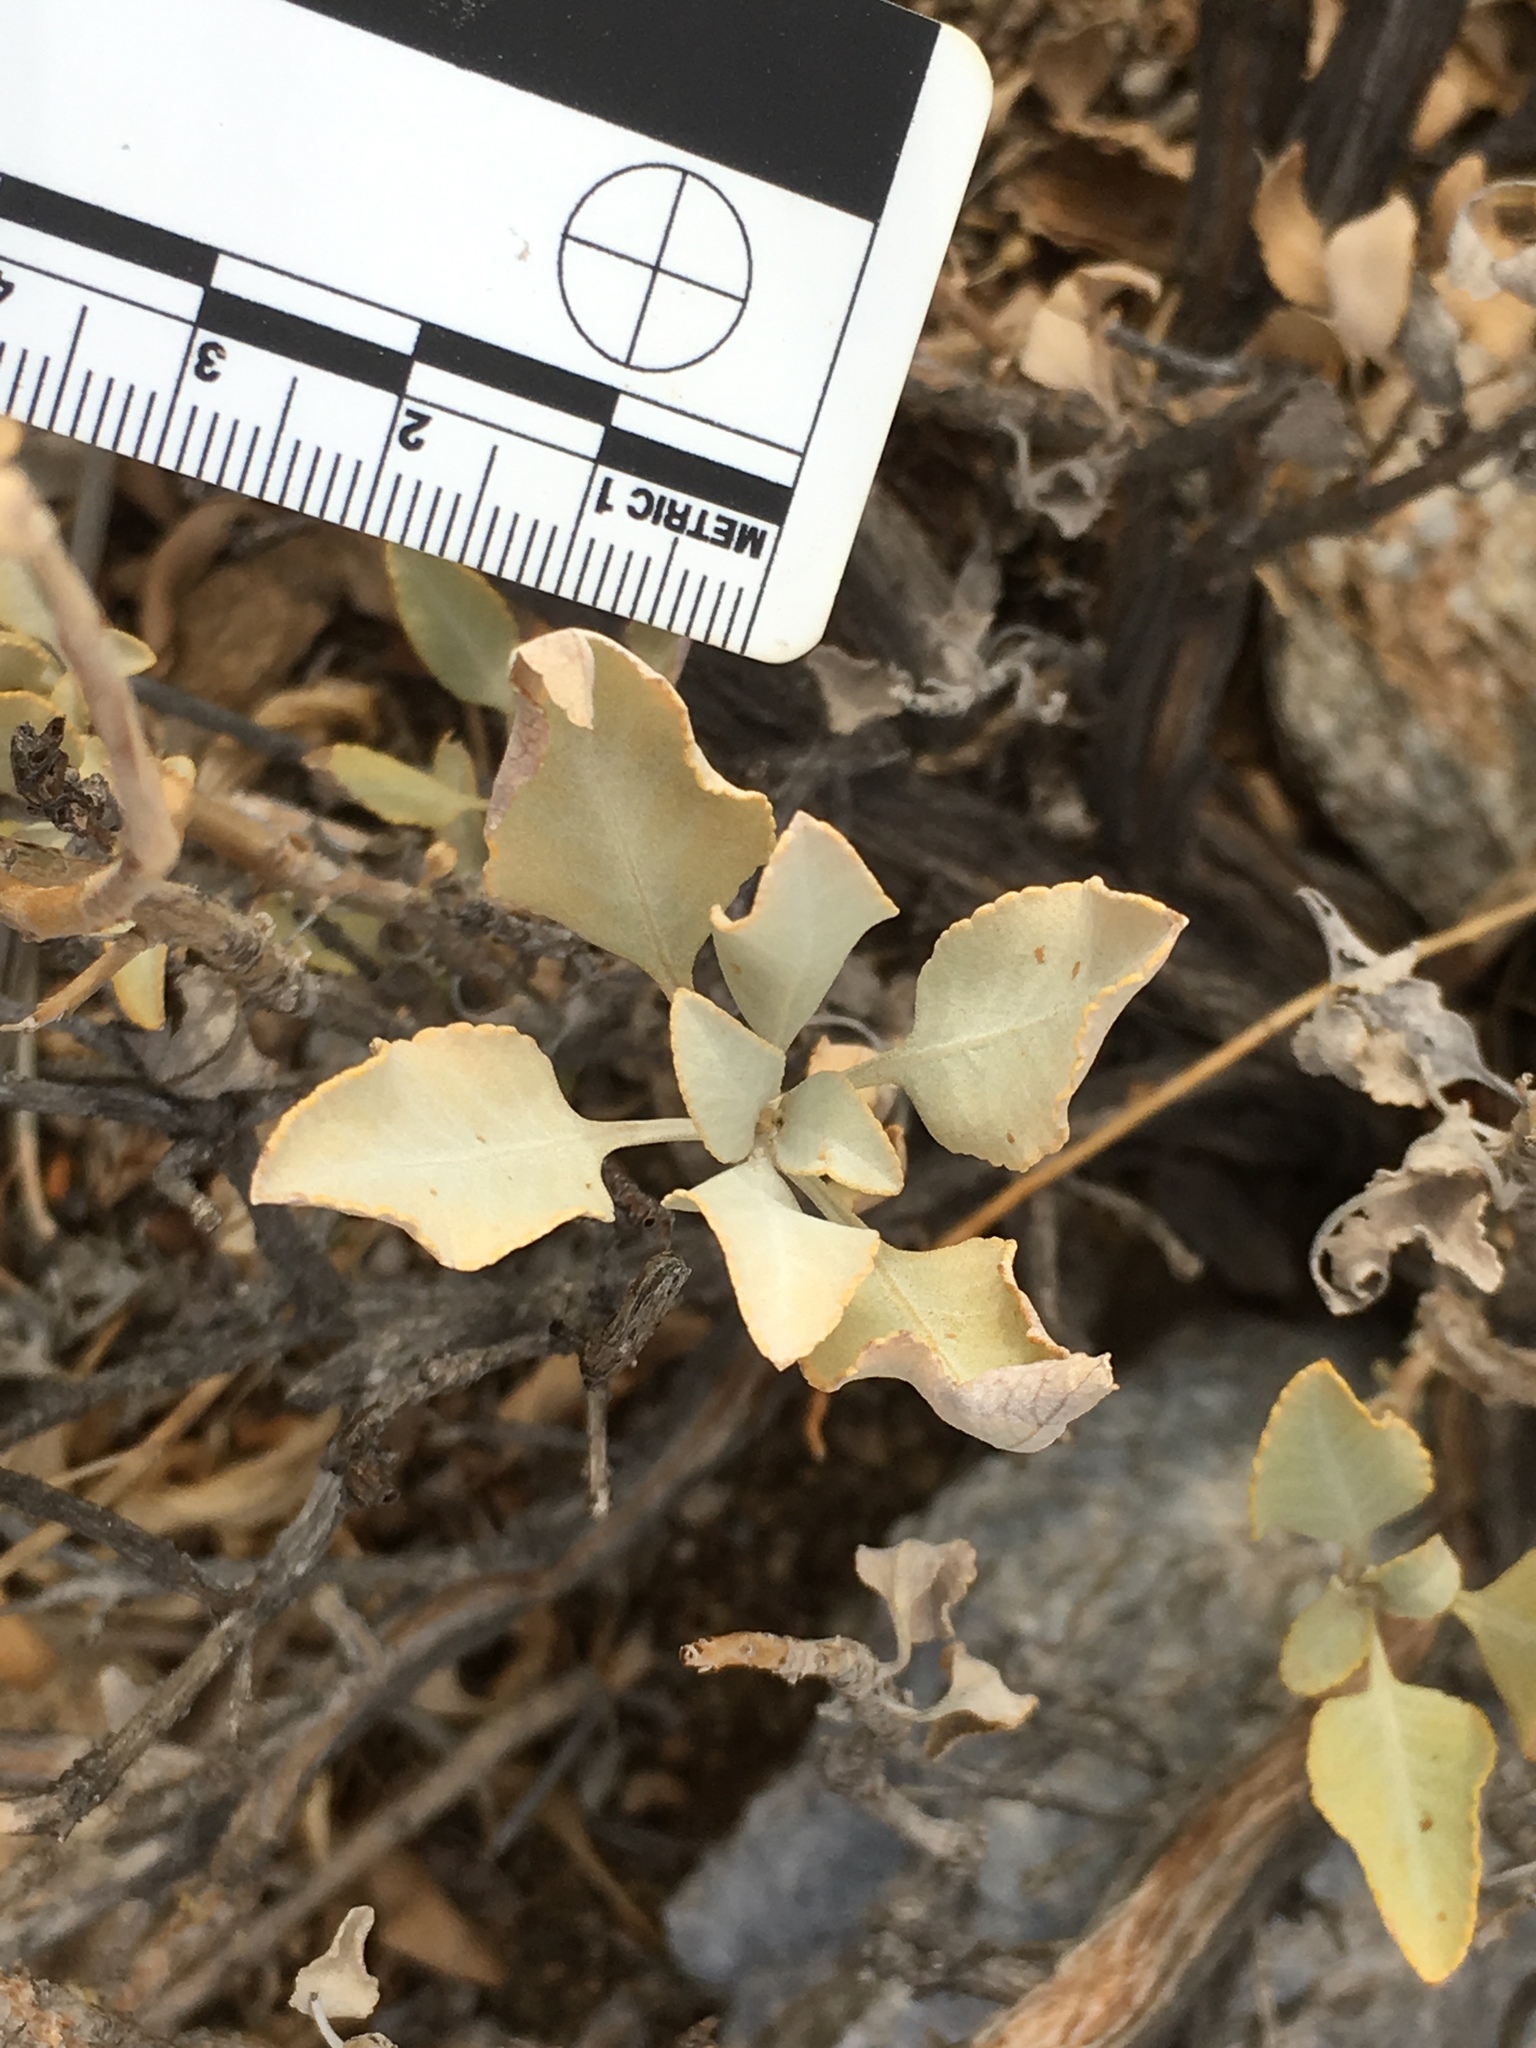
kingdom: Plantae
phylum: Tracheophyta
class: Magnoliopsida
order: Lamiales
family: Lamiaceae
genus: Salvia
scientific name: Salvia vaseyi
